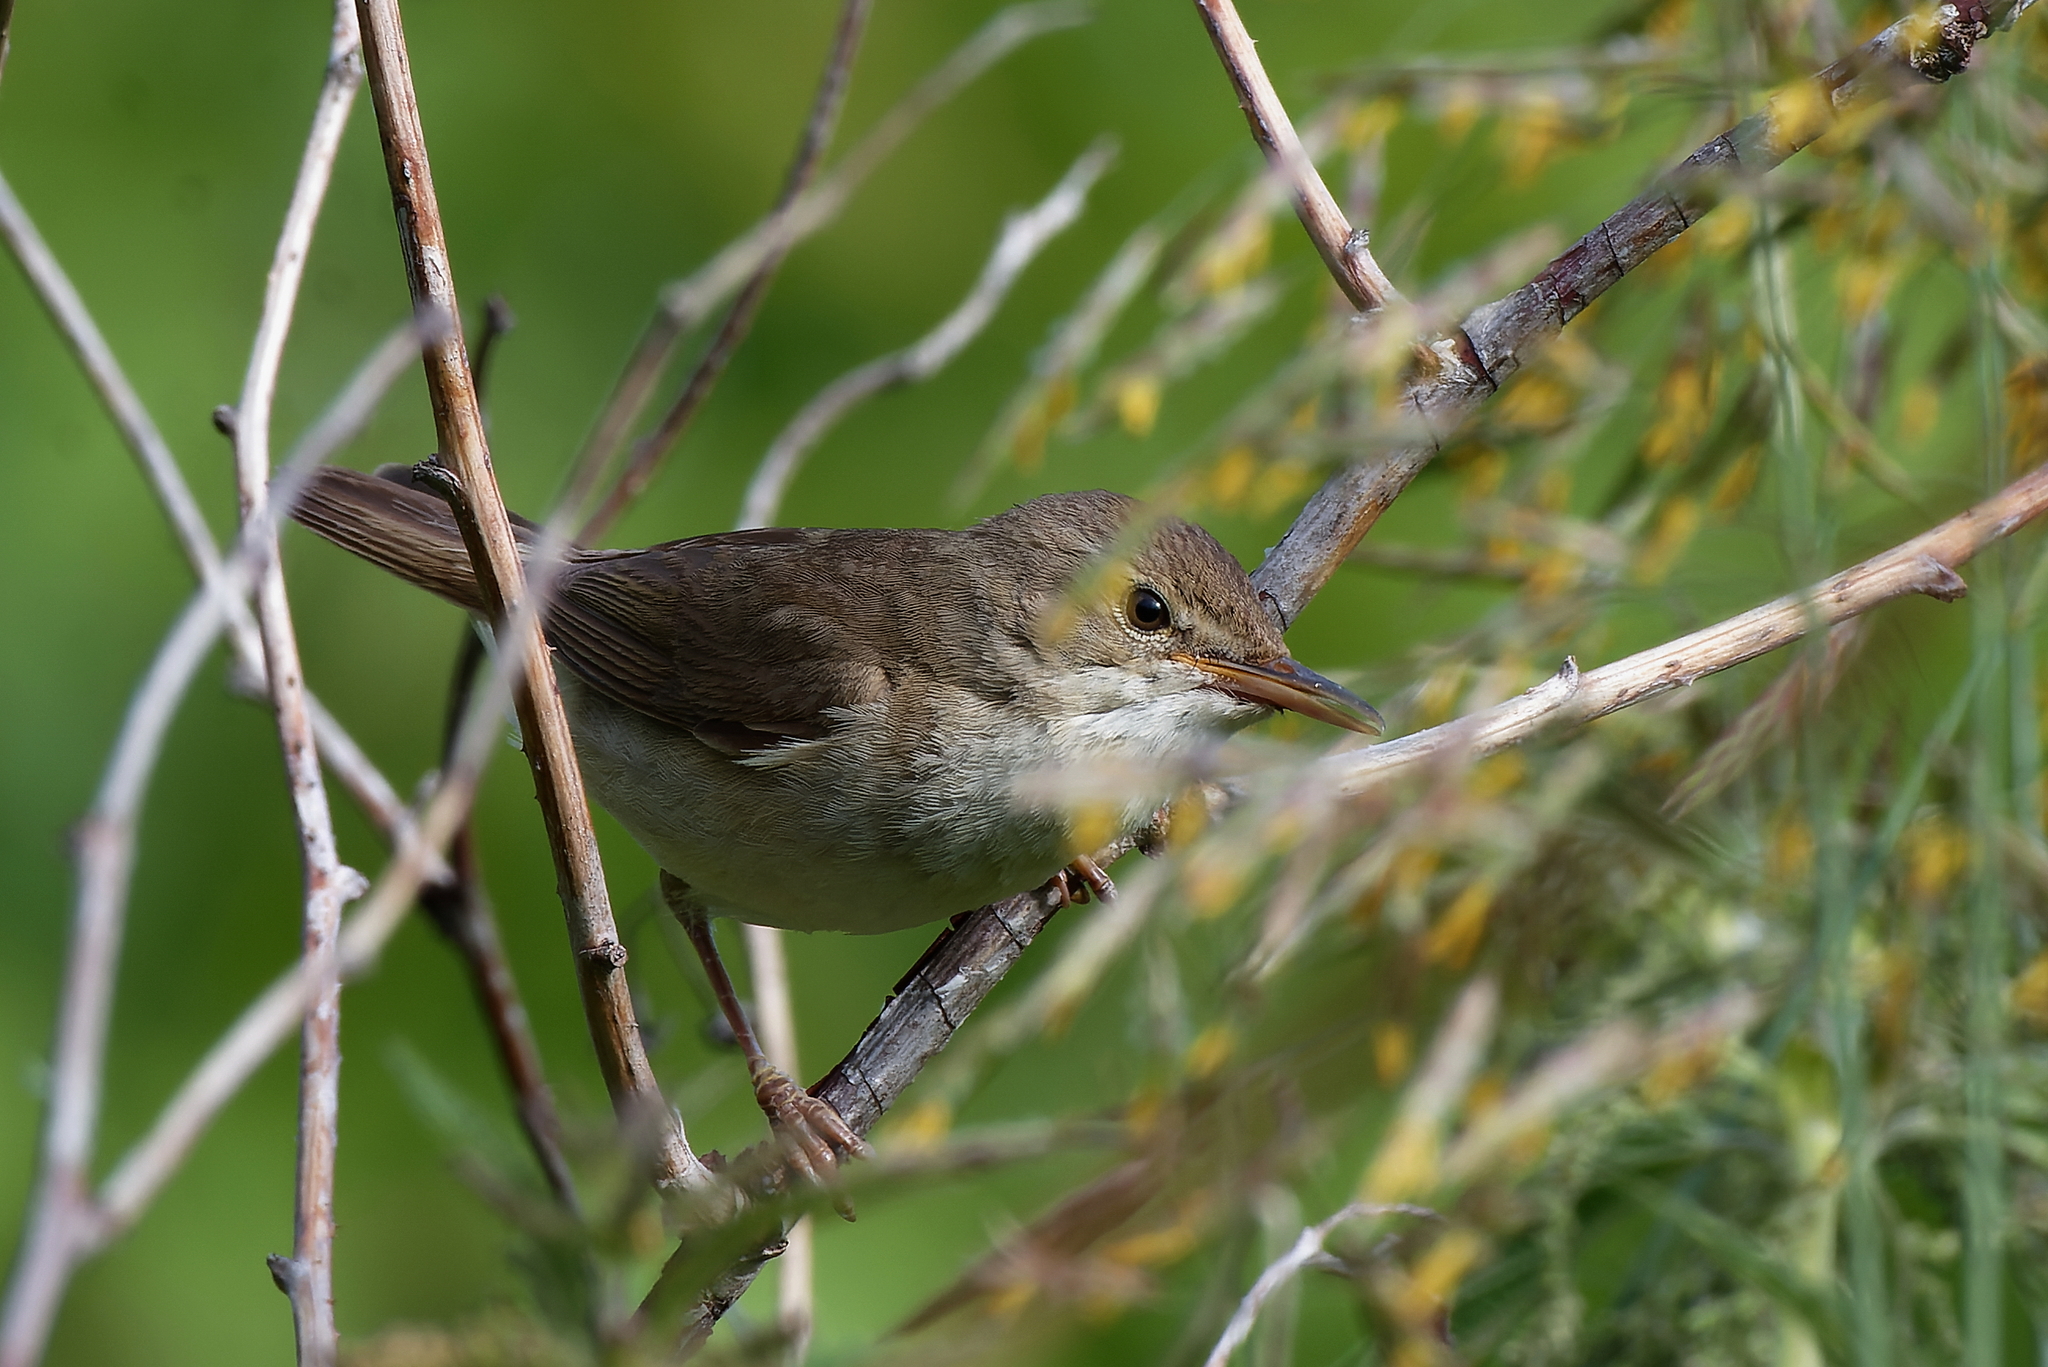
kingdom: Animalia
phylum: Chordata
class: Aves
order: Passeriformes
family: Acrocephalidae
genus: Acrocephalus
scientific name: Acrocephalus dumetorum
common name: Blyth's reed warbler
